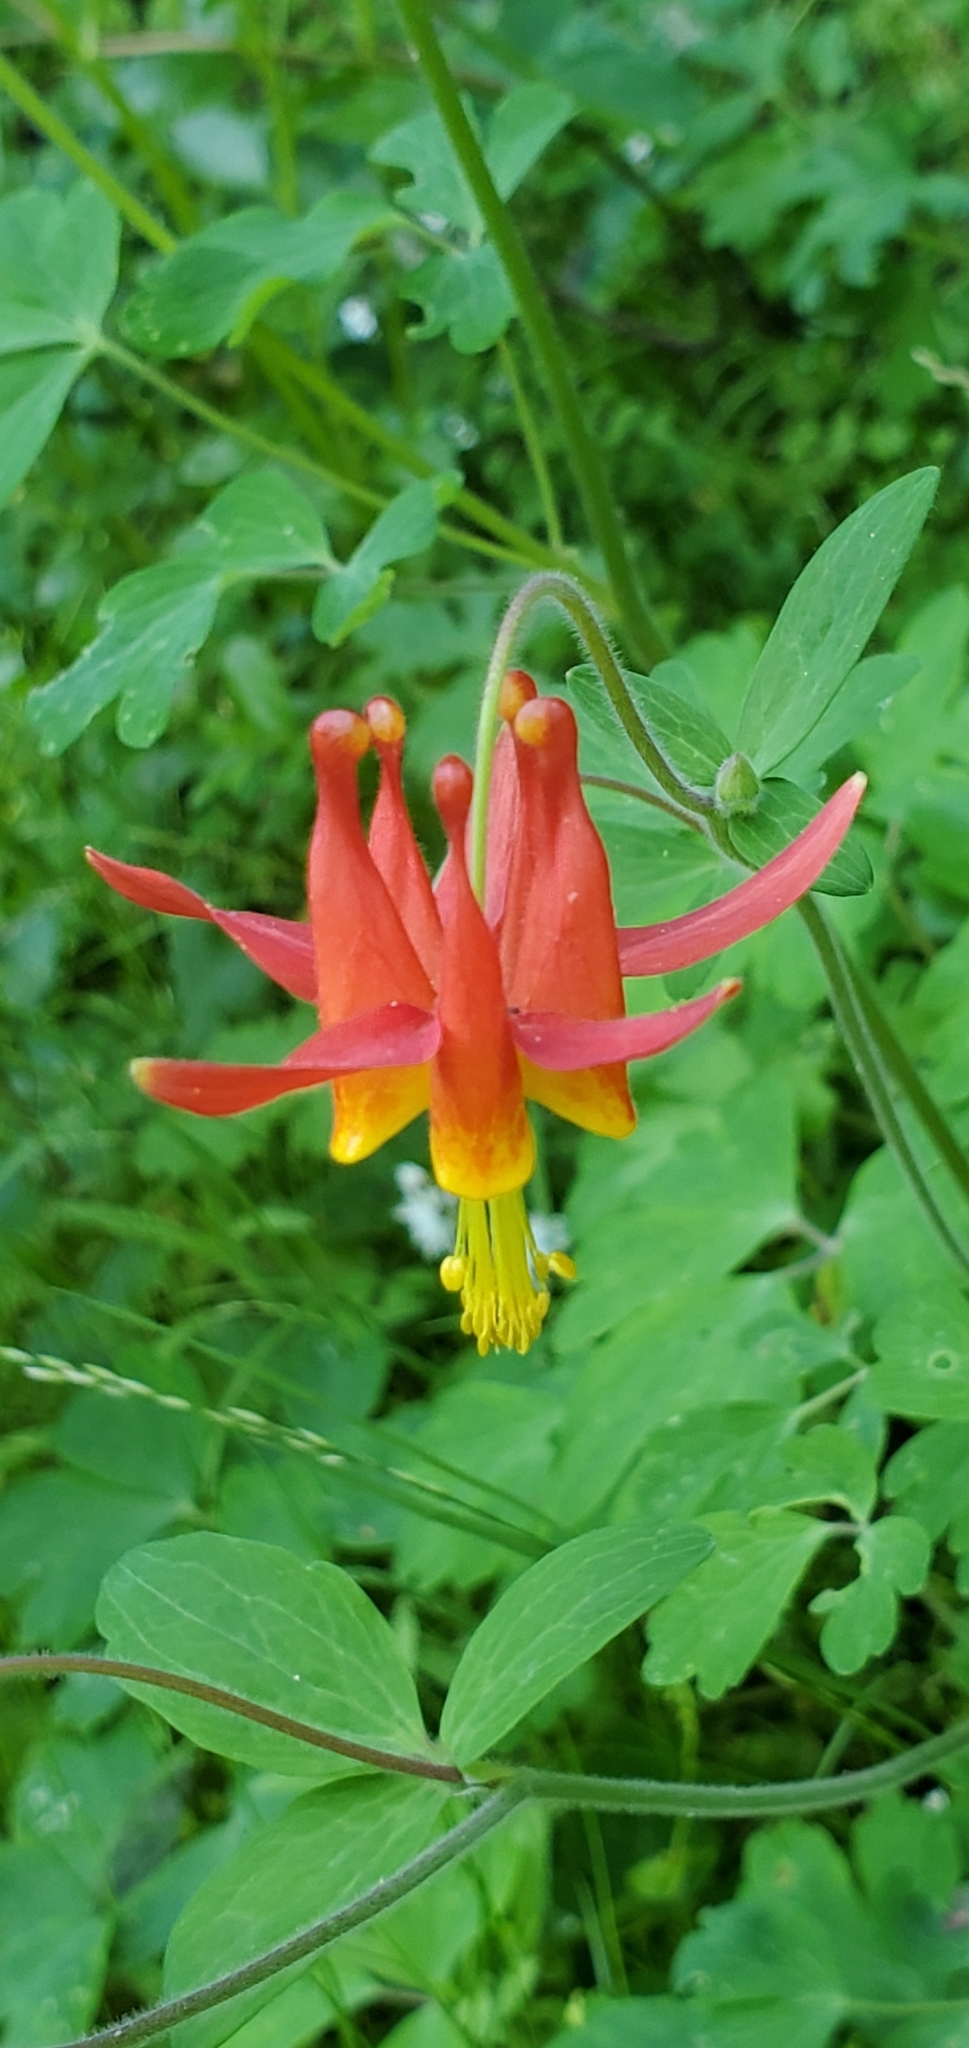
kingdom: Plantae
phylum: Tracheophyta
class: Magnoliopsida
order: Ranunculales
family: Ranunculaceae
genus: Aquilegia
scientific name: Aquilegia formosa
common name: Sitka columbine
